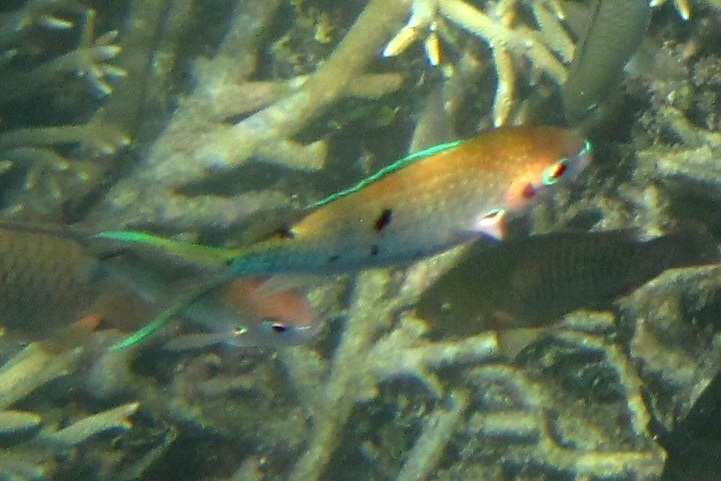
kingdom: Animalia
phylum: Chordata
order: Perciformes
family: Pomacentridae
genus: Chromis
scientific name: Chromis atripectoralis
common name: Black-axil chromis
